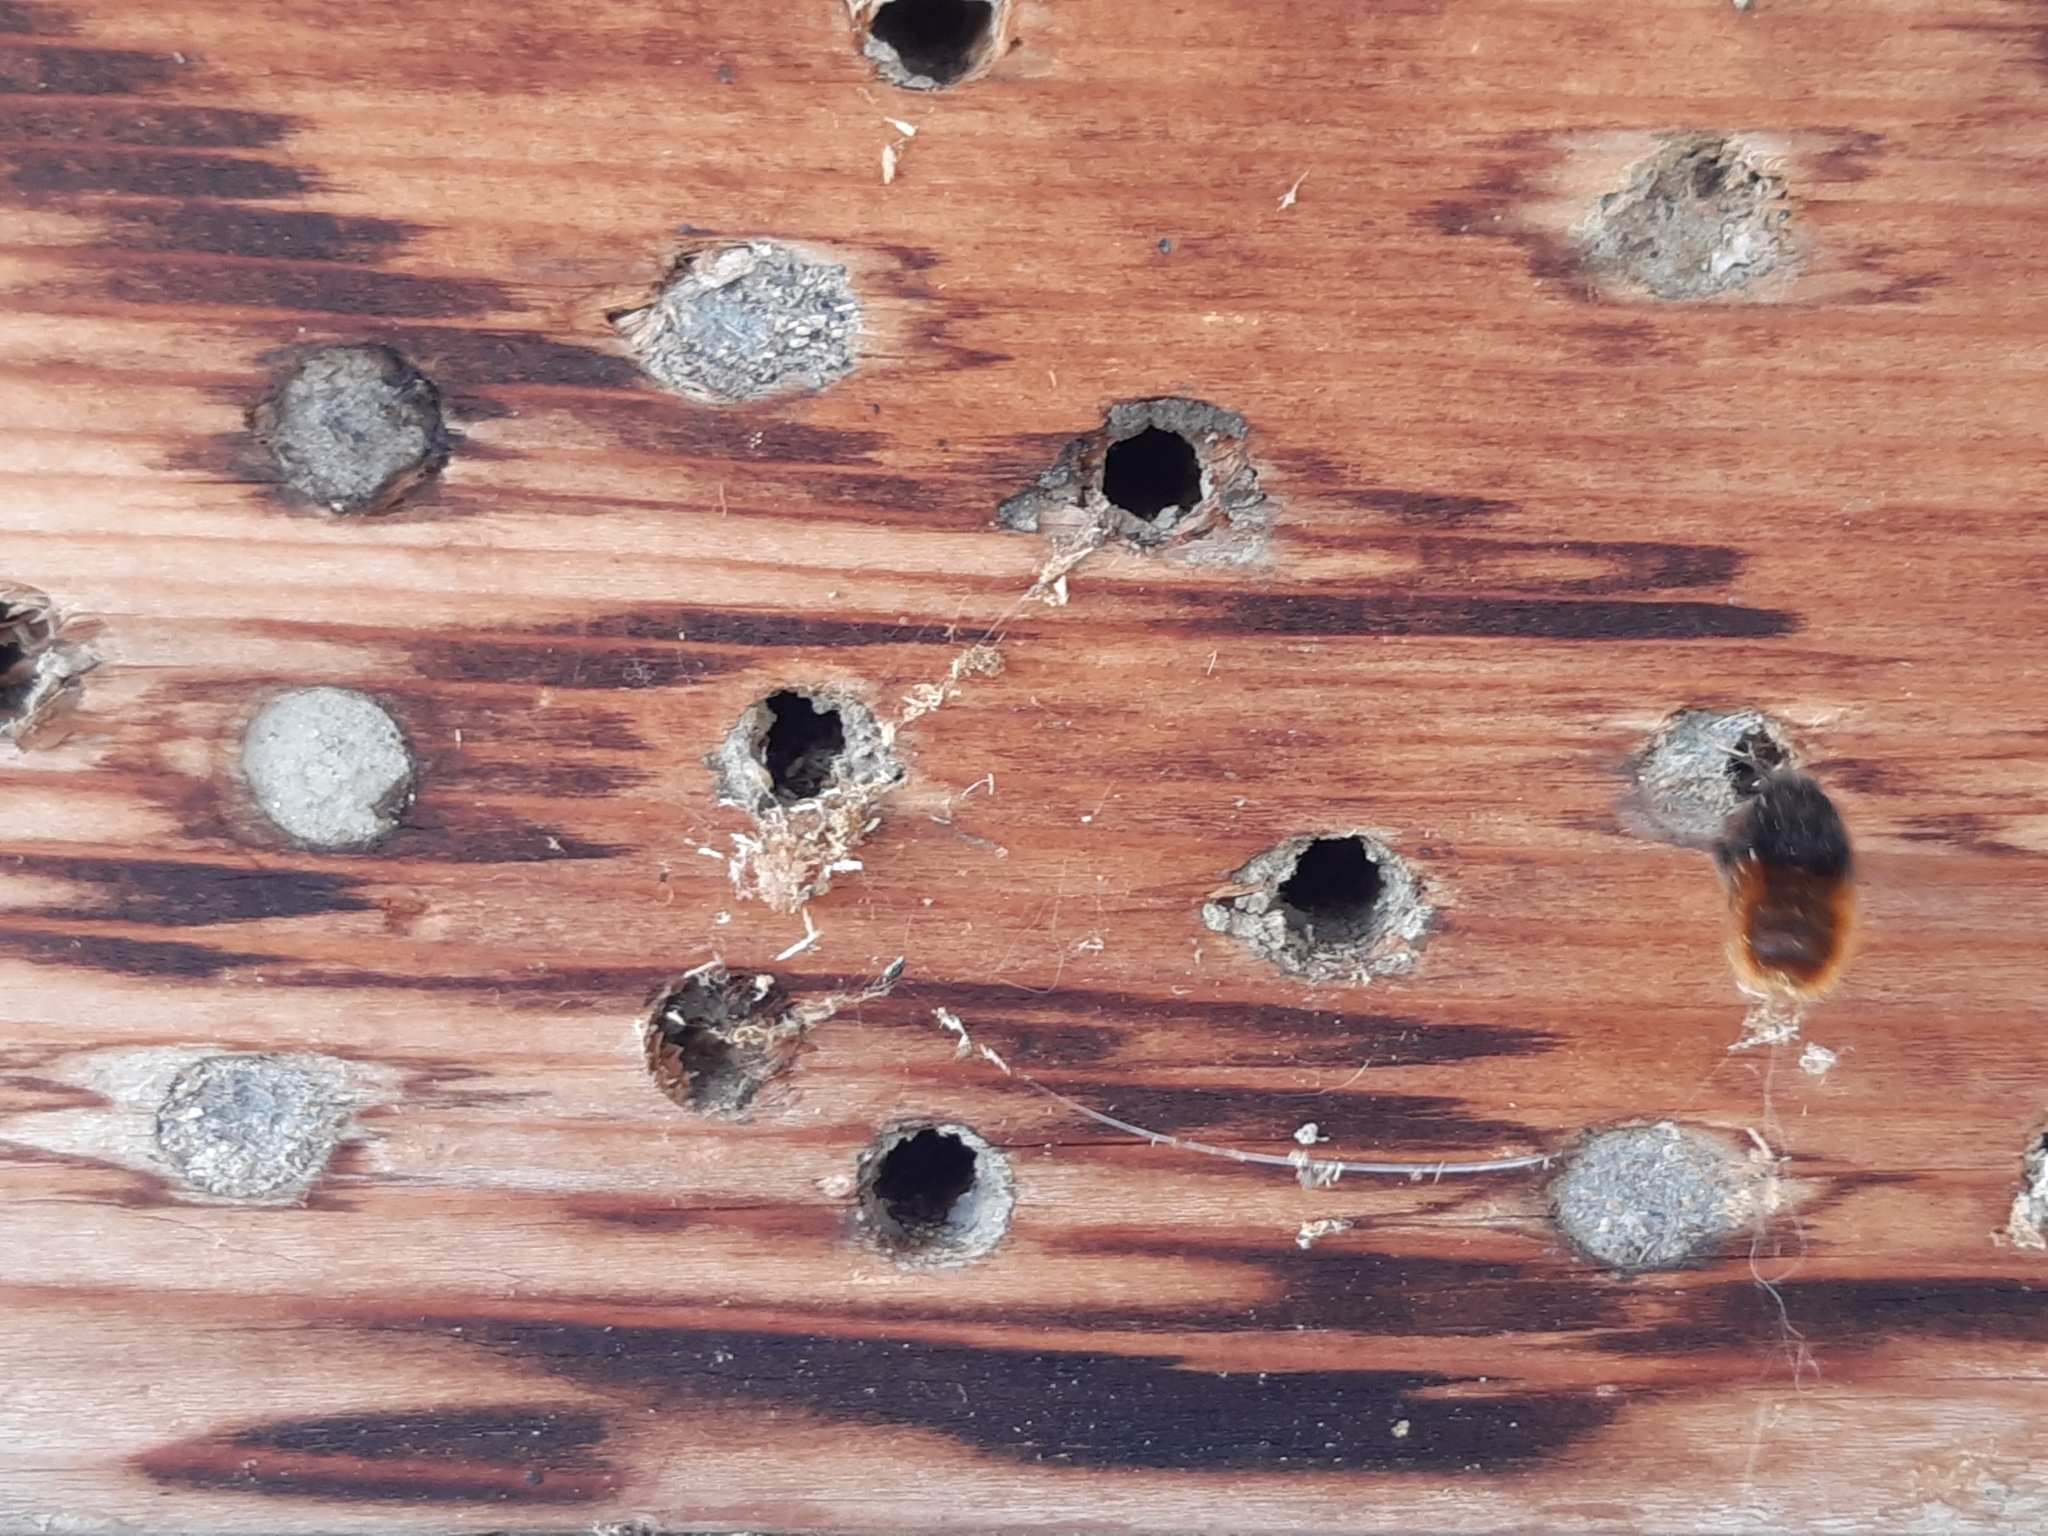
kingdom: Animalia
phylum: Arthropoda
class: Insecta
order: Hymenoptera
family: Megachilidae
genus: Osmia
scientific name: Osmia cornuta
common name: Mason bee
